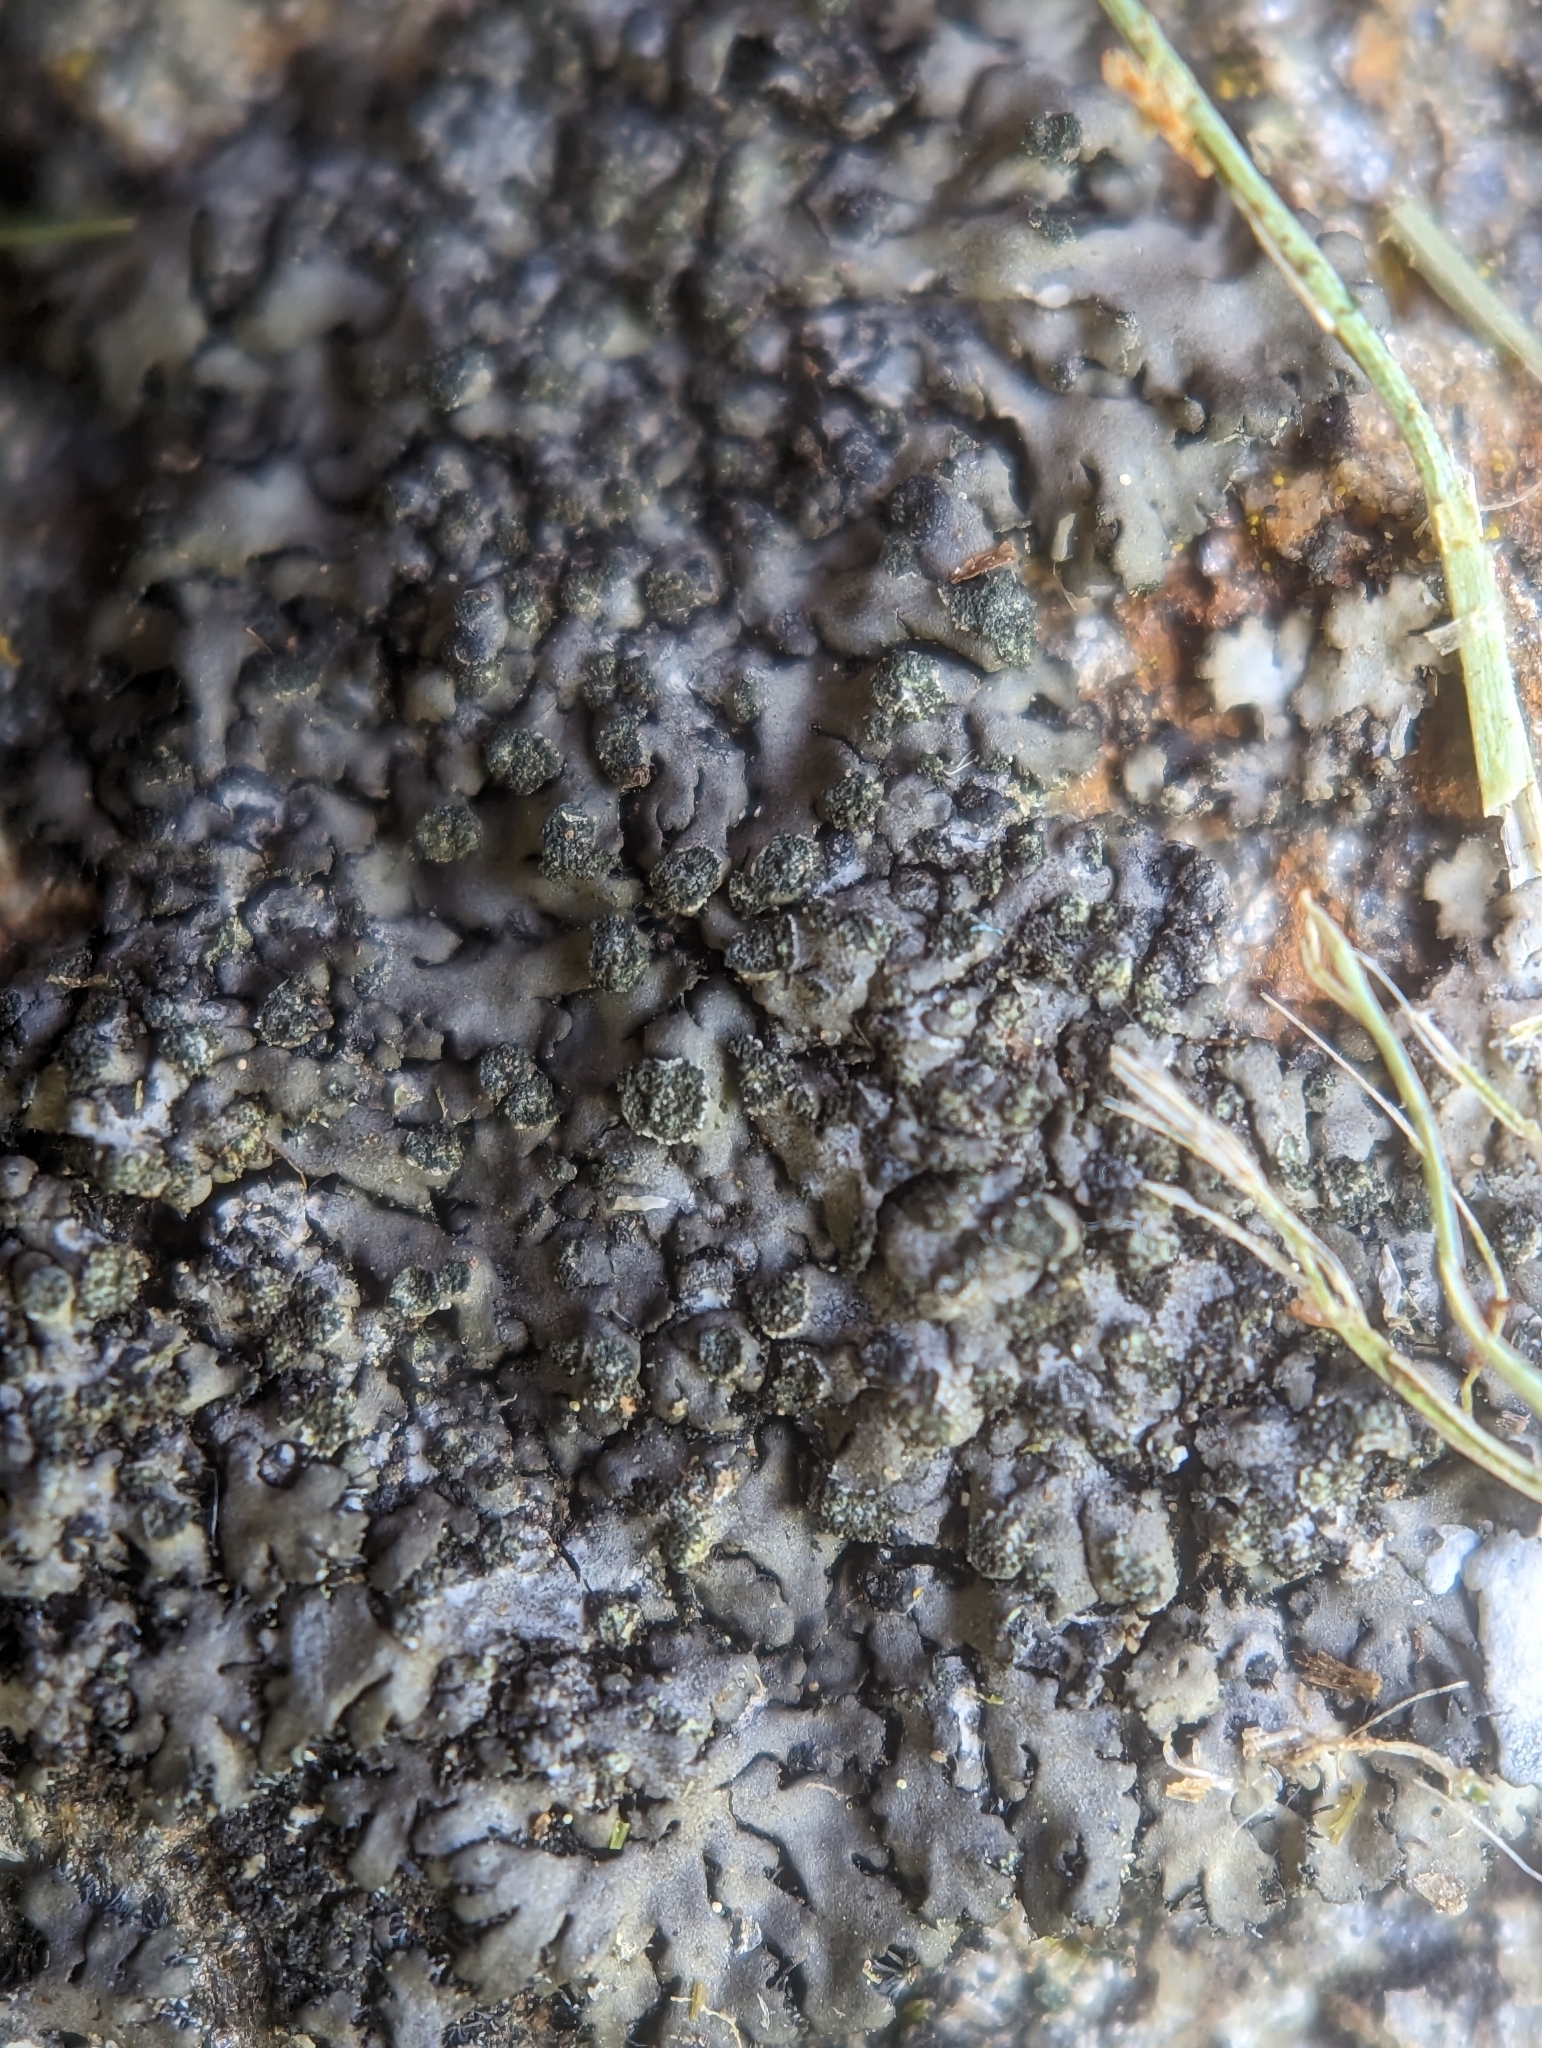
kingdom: Fungi
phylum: Ascomycota
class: Lecanoromycetes
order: Caliciales
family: Physciaceae
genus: Phaeophyscia
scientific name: Phaeophyscia orbicularis
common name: Mealy shadow lichen
